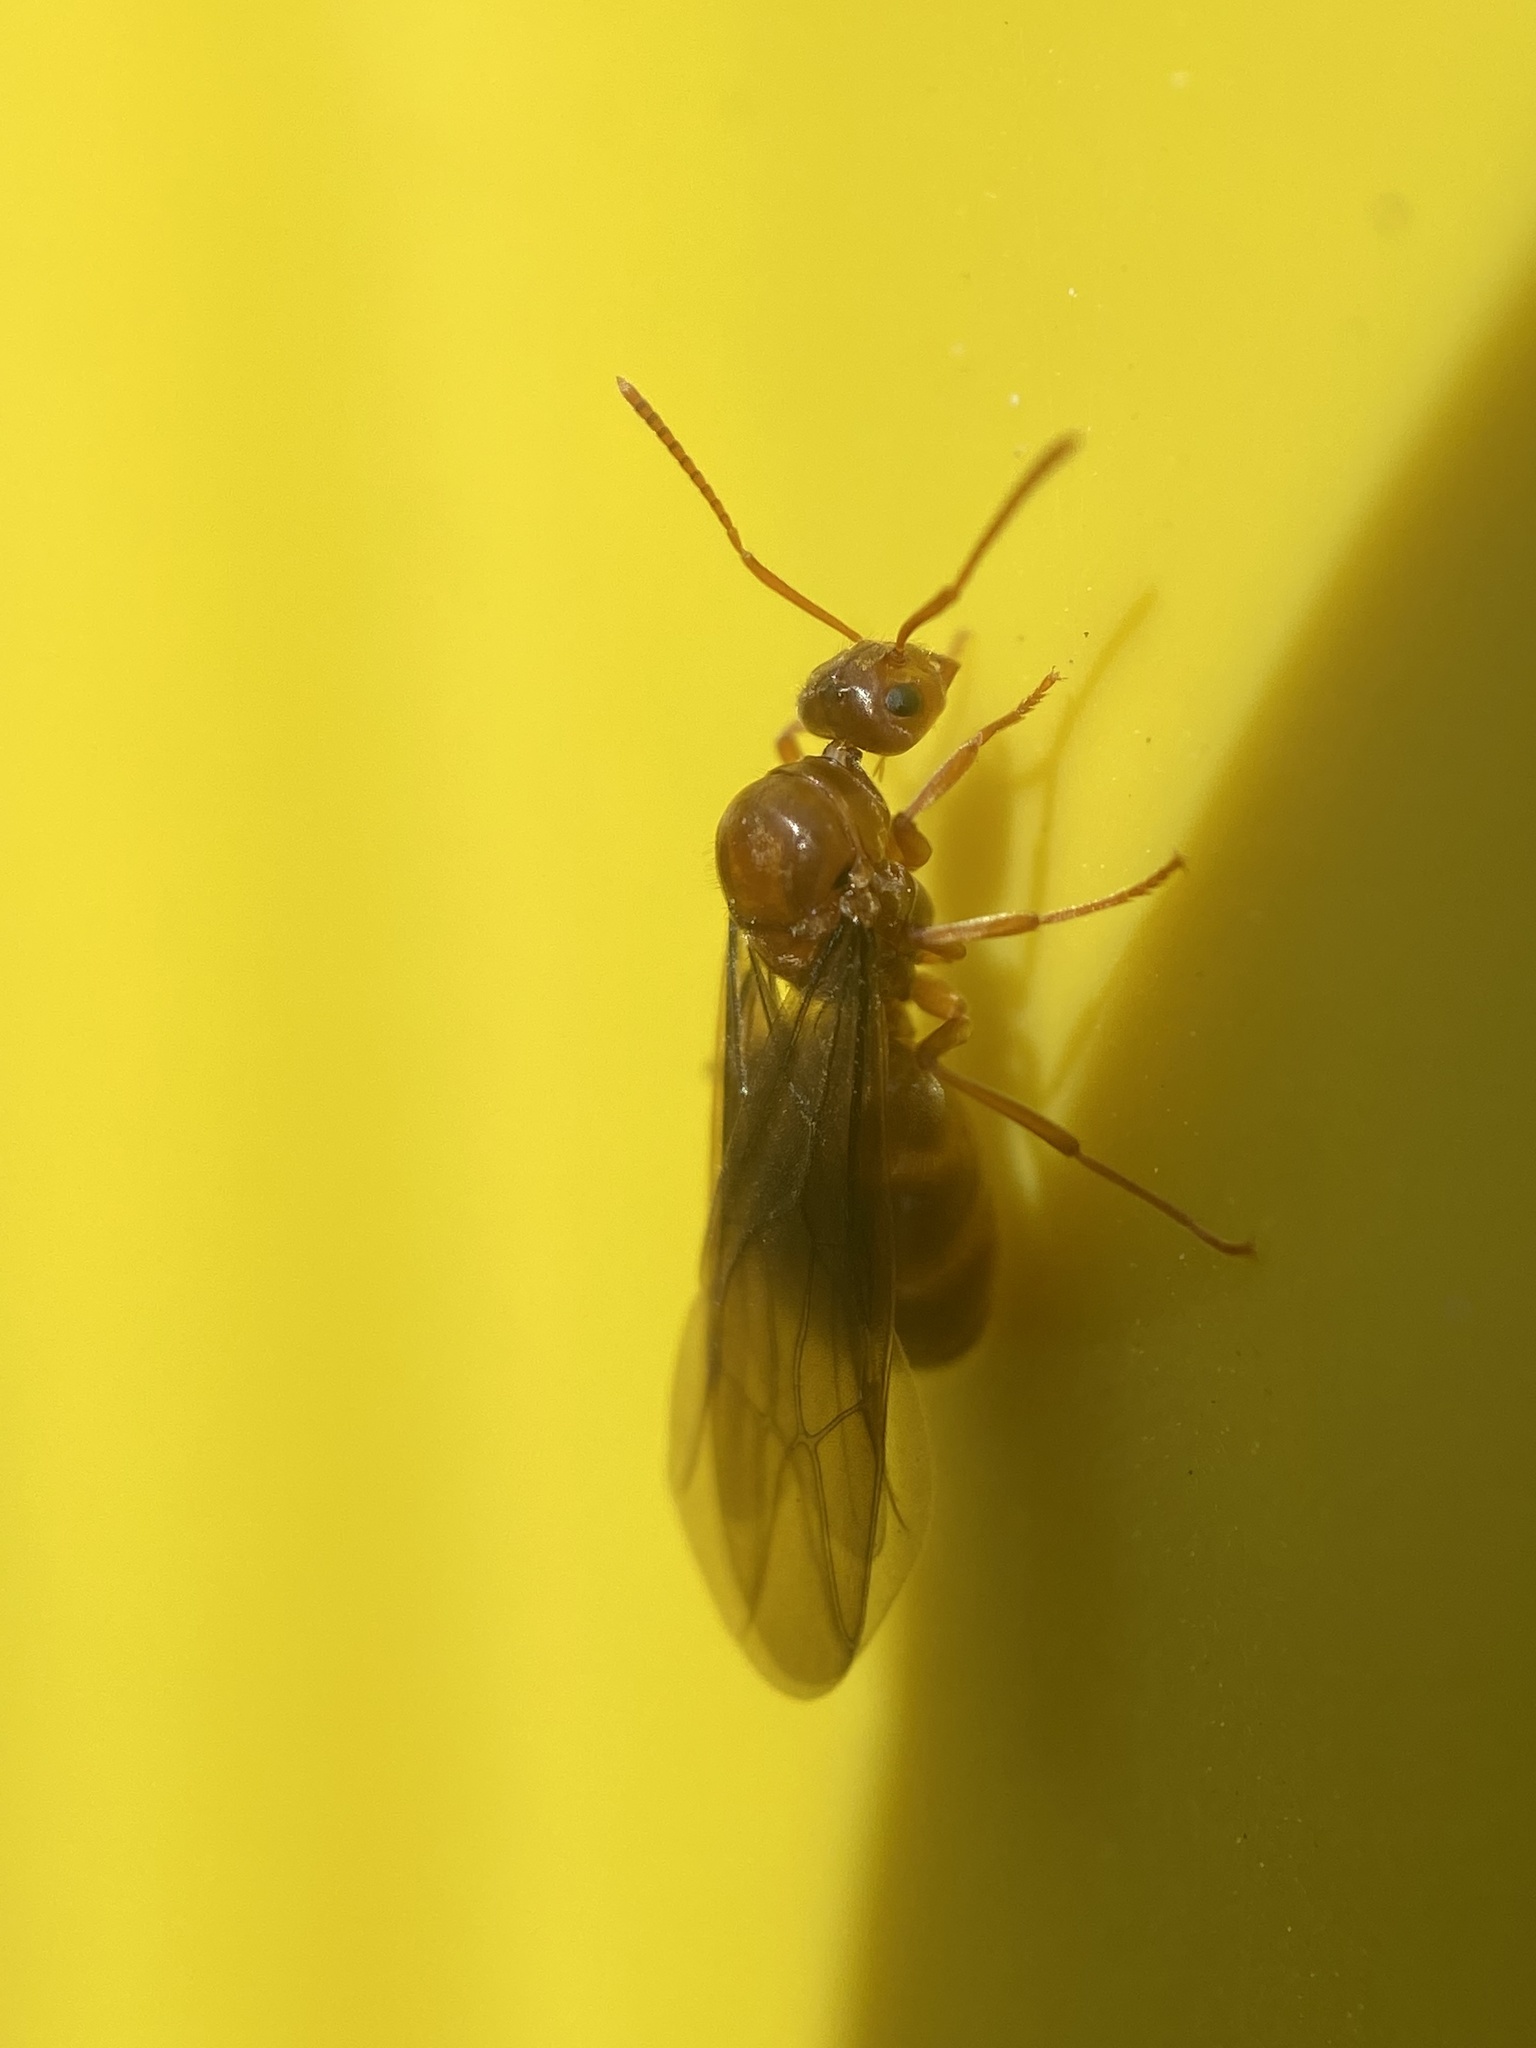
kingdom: Animalia
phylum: Arthropoda
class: Insecta
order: Hymenoptera
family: Formicidae
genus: Prenolepis
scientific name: Prenolepis imparis
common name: Small honey ant
